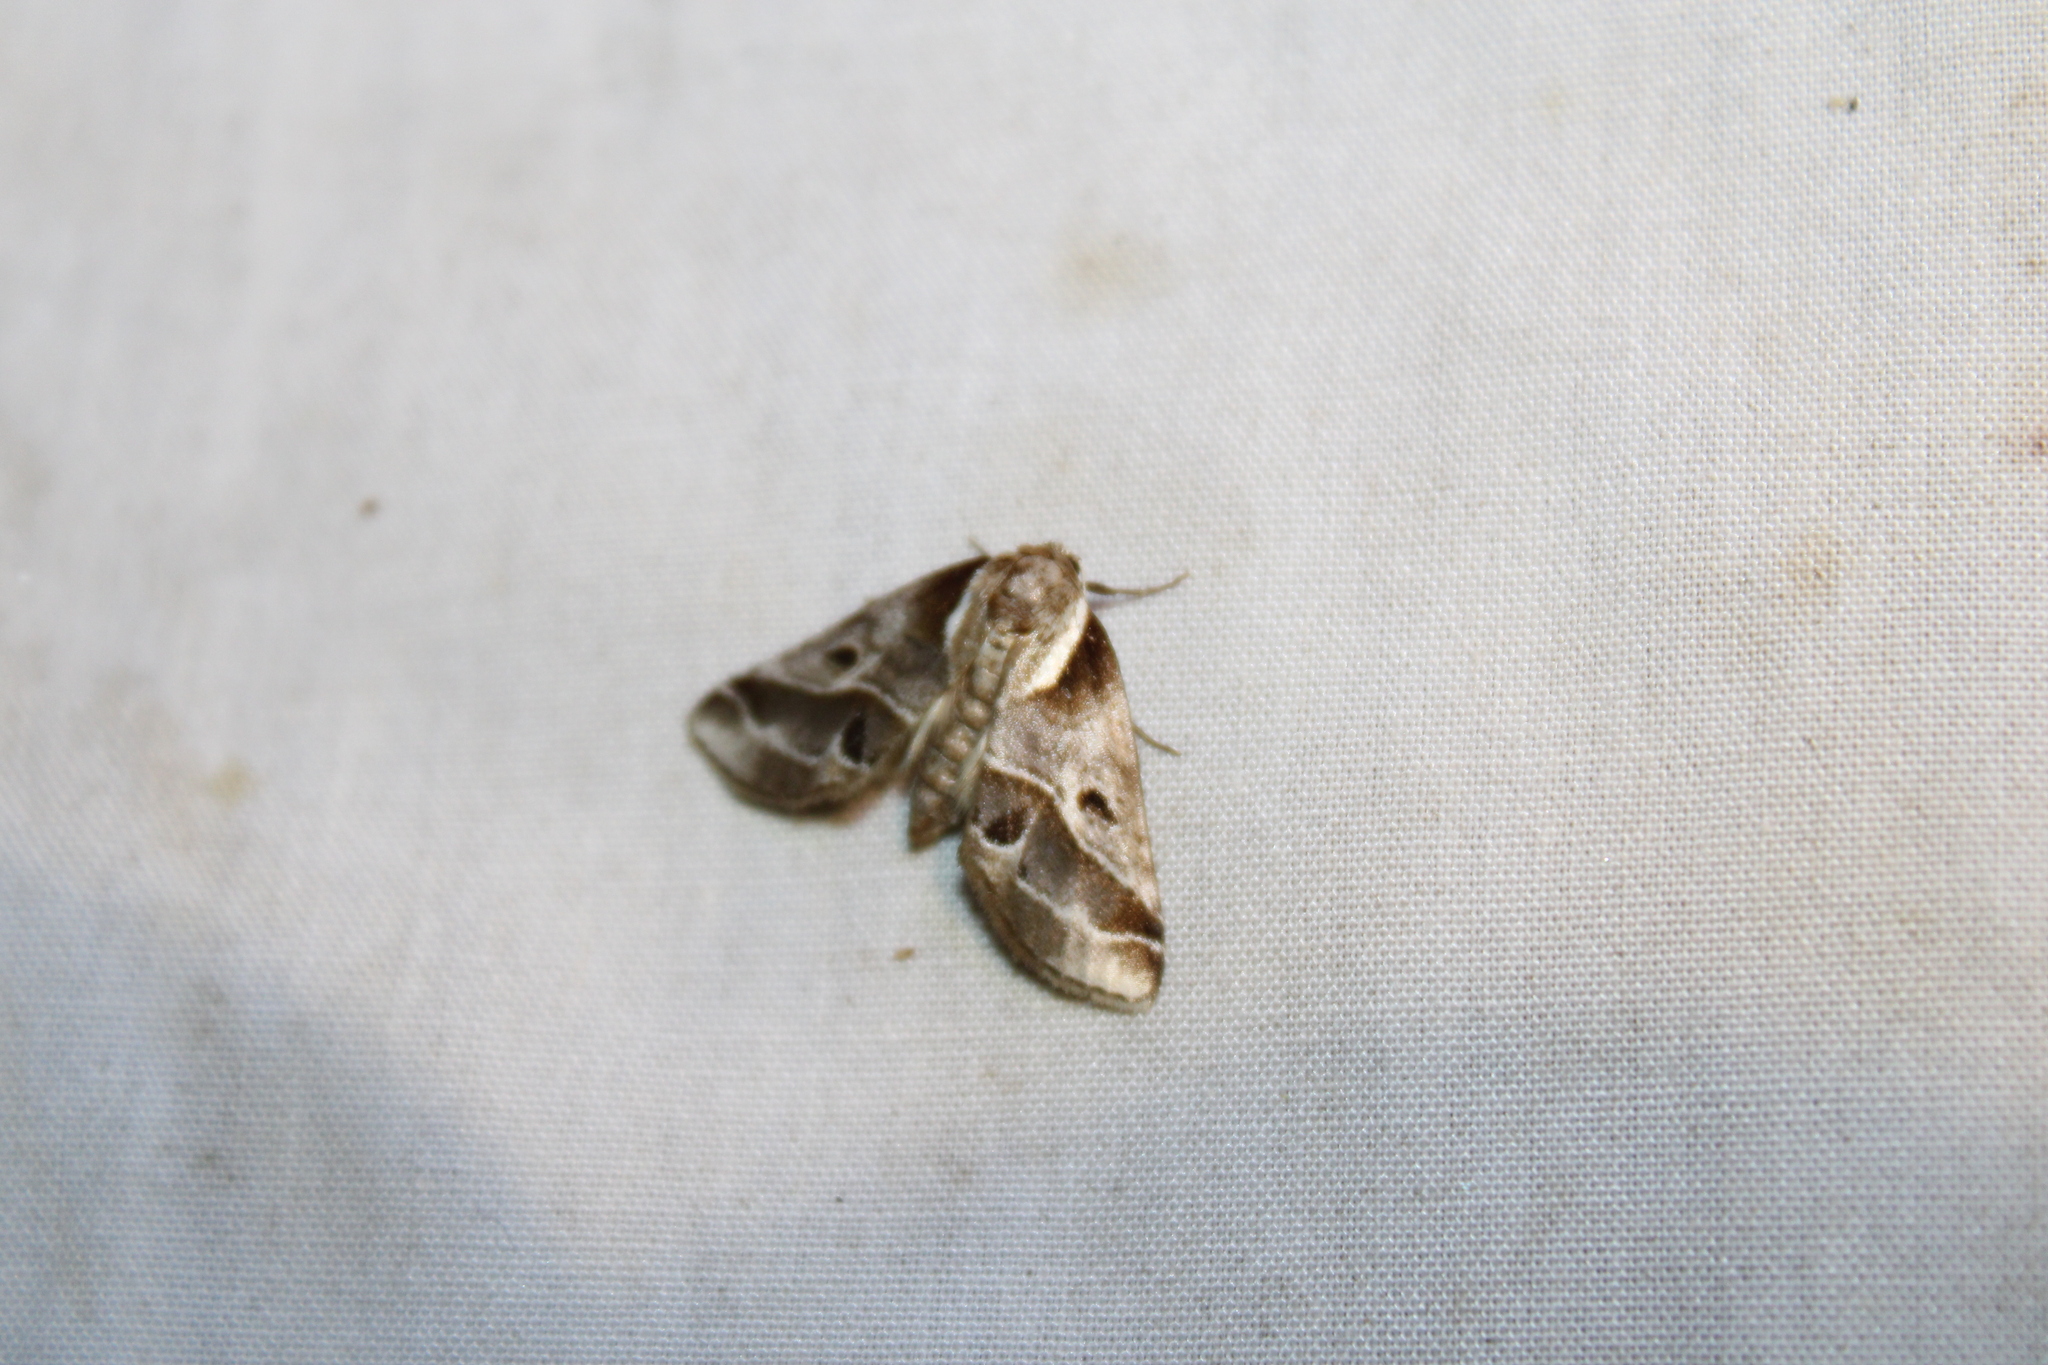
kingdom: Animalia
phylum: Arthropoda
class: Insecta
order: Lepidoptera
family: Nolidae
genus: Baileya
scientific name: Baileya doubledayi
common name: Doubleday's baileya moth
